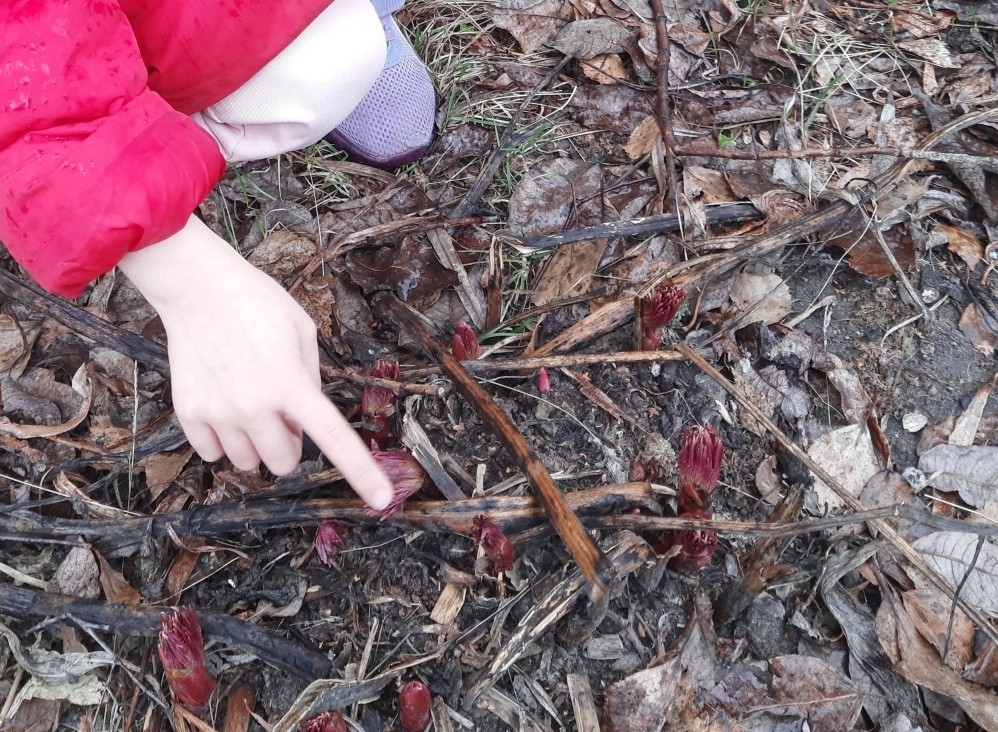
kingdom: Plantae
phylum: Tracheophyta
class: Magnoliopsida
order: Saxifragales
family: Paeoniaceae
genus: Paeonia
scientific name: Paeonia anomala
